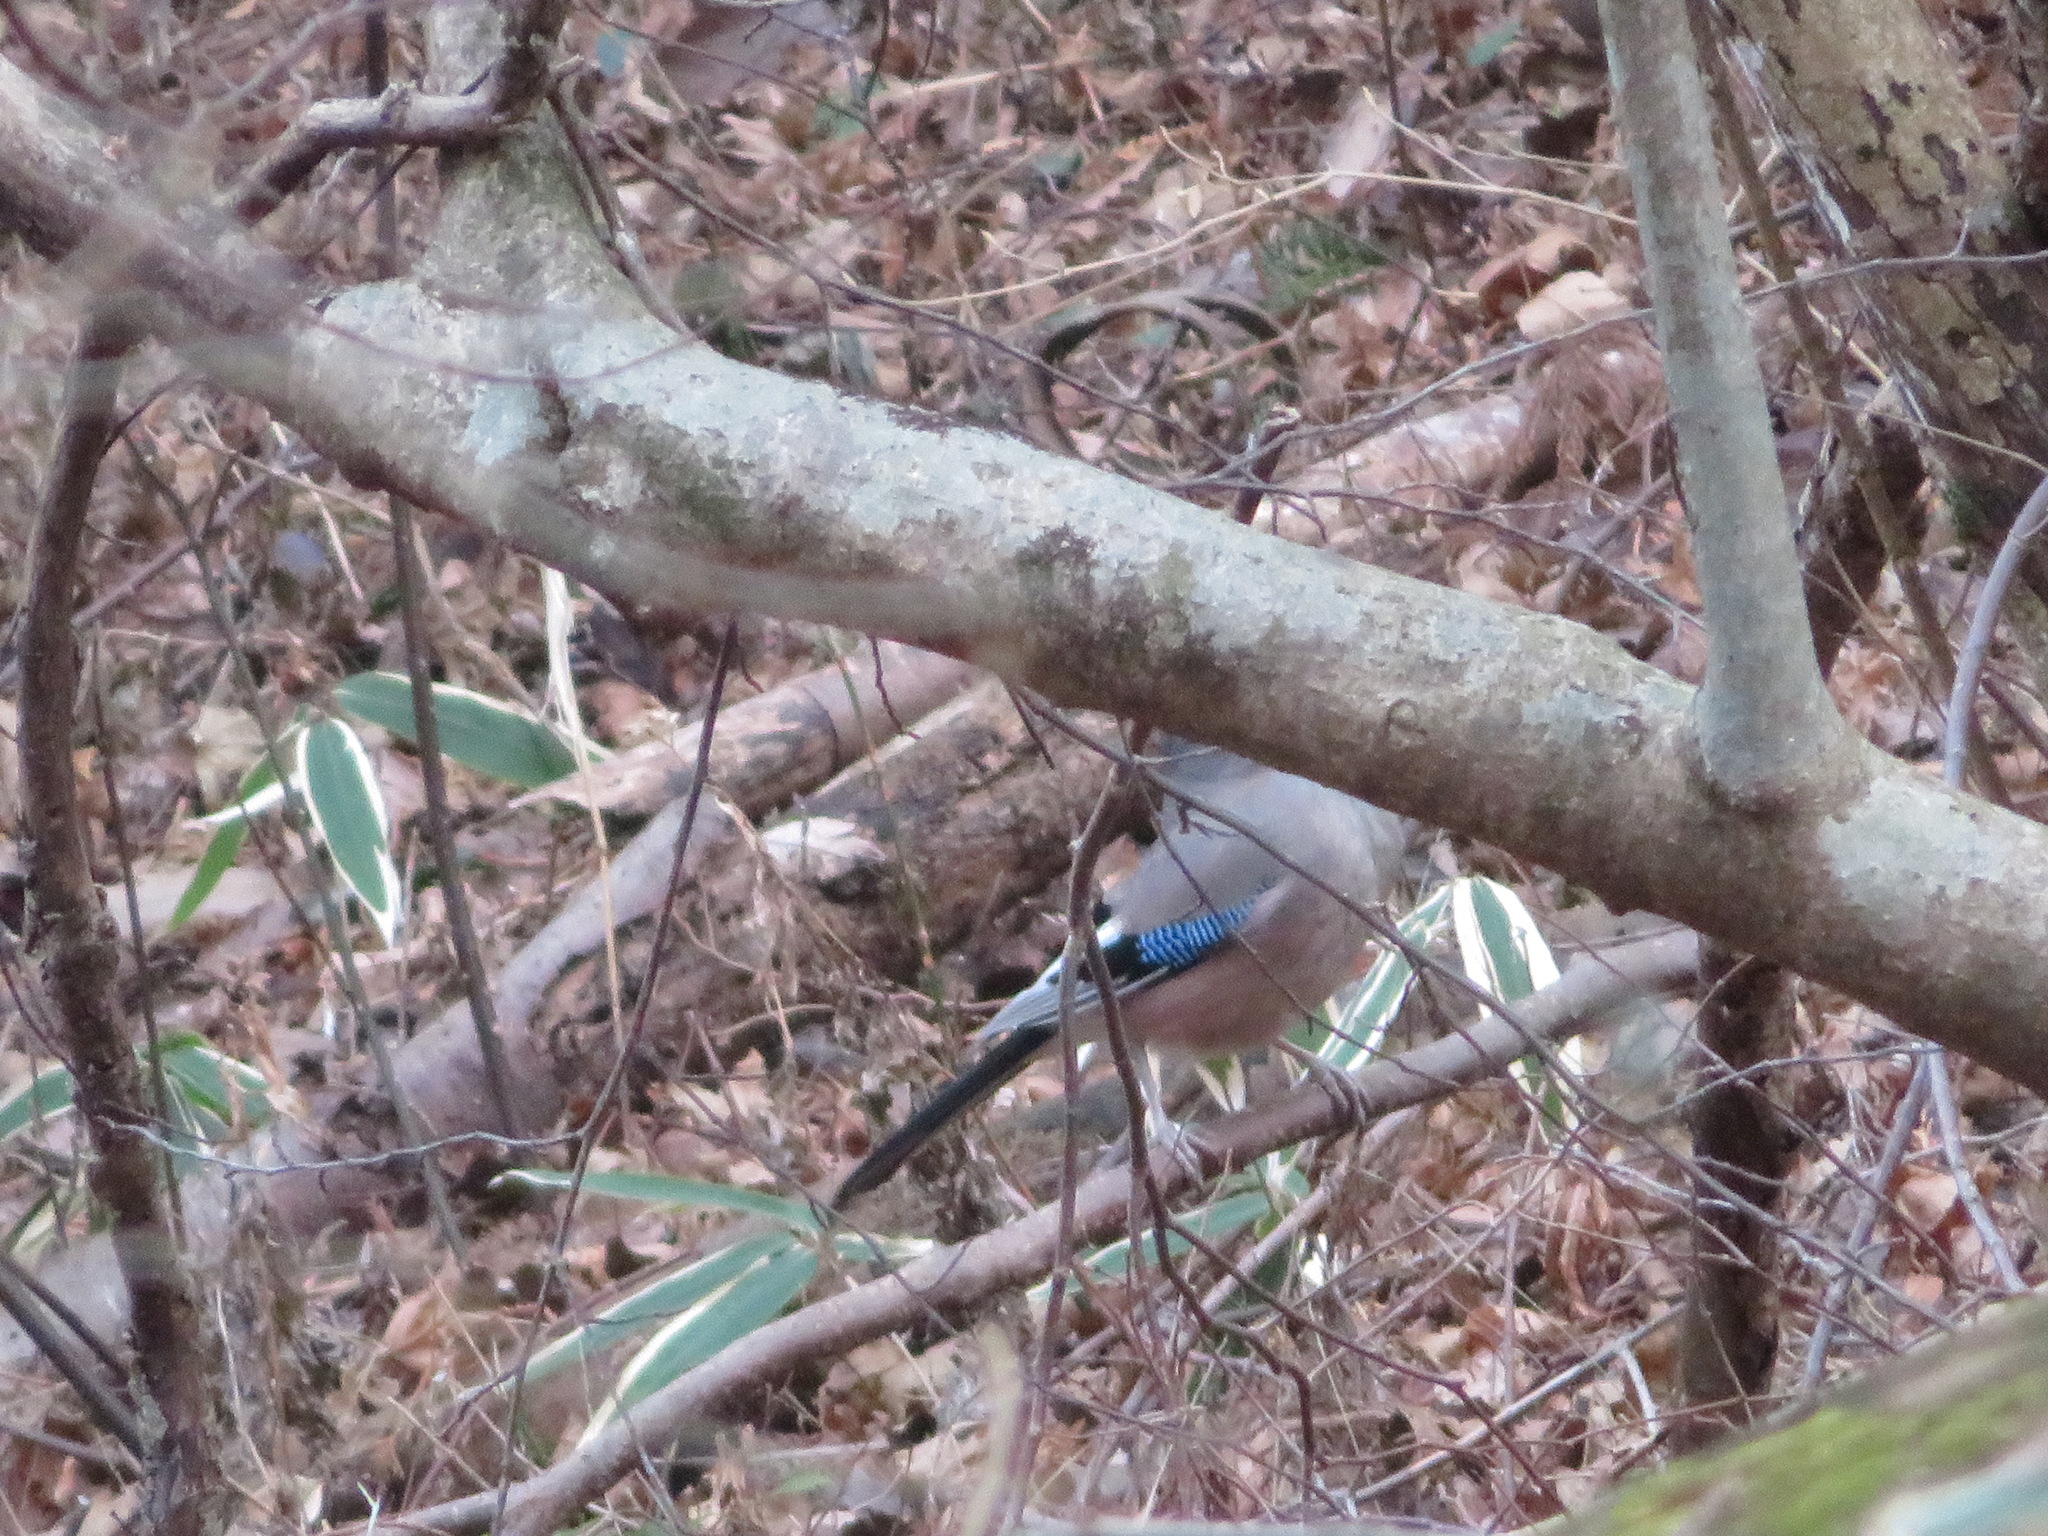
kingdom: Animalia
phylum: Chordata
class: Aves
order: Passeriformes
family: Corvidae
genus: Garrulus
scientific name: Garrulus glandarius
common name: Eurasian jay
